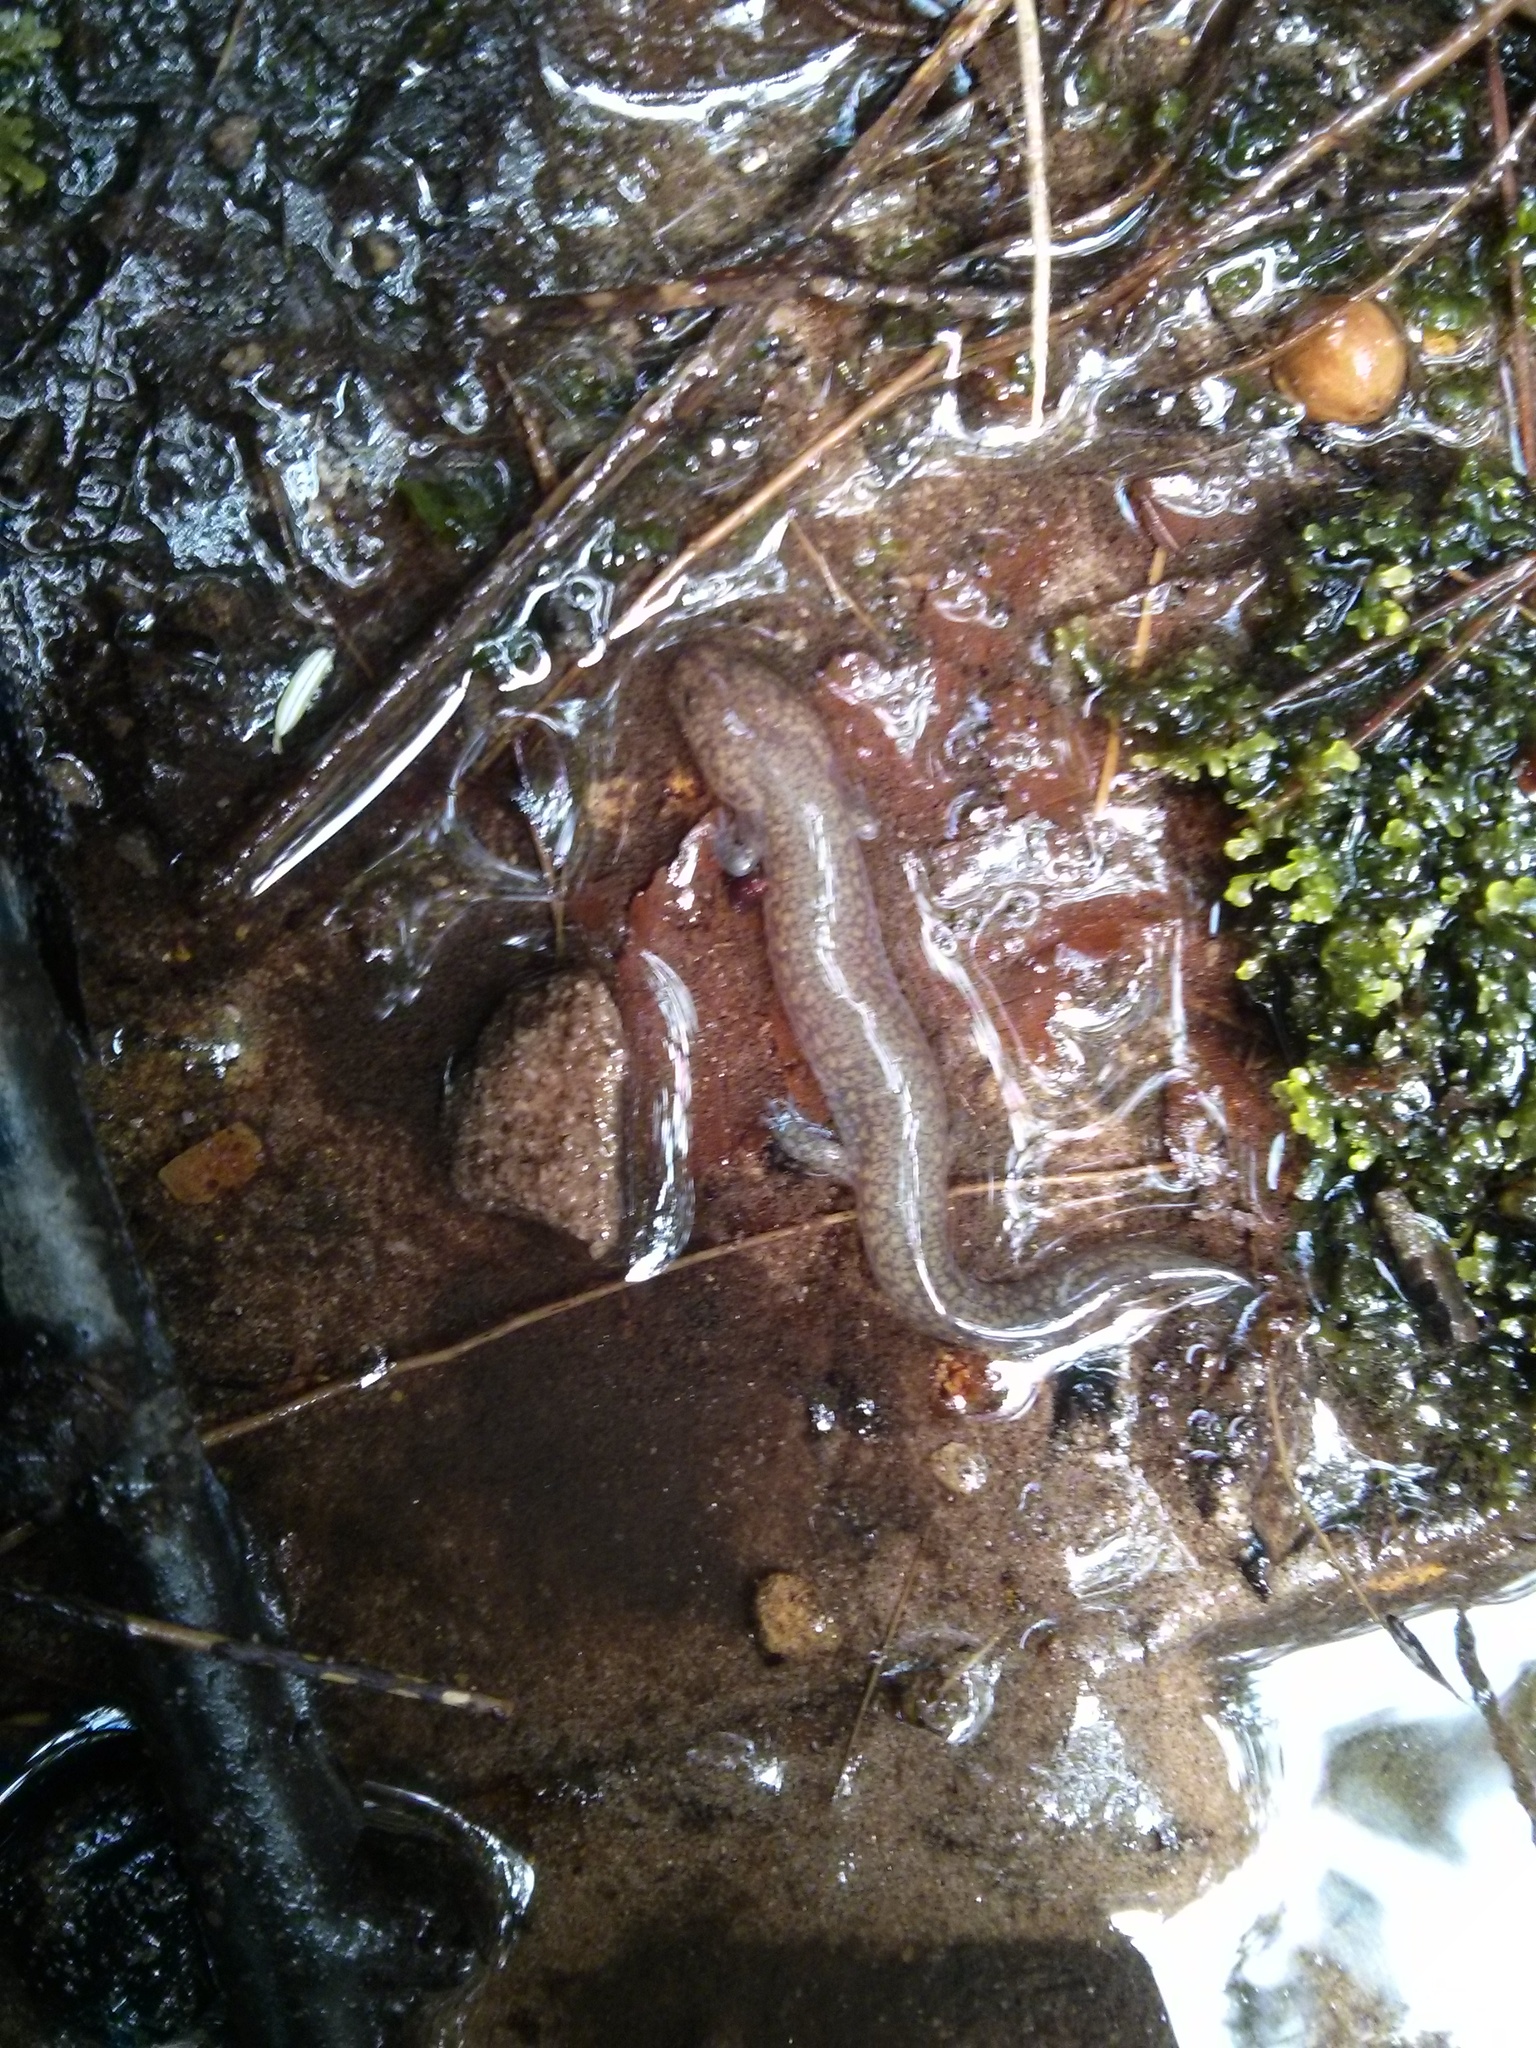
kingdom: Animalia
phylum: Chordata
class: Amphibia
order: Caudata
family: Plethodontidae
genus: Gyrinophilus
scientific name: Gyrinophilus porphyriticus
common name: Spring salamander
